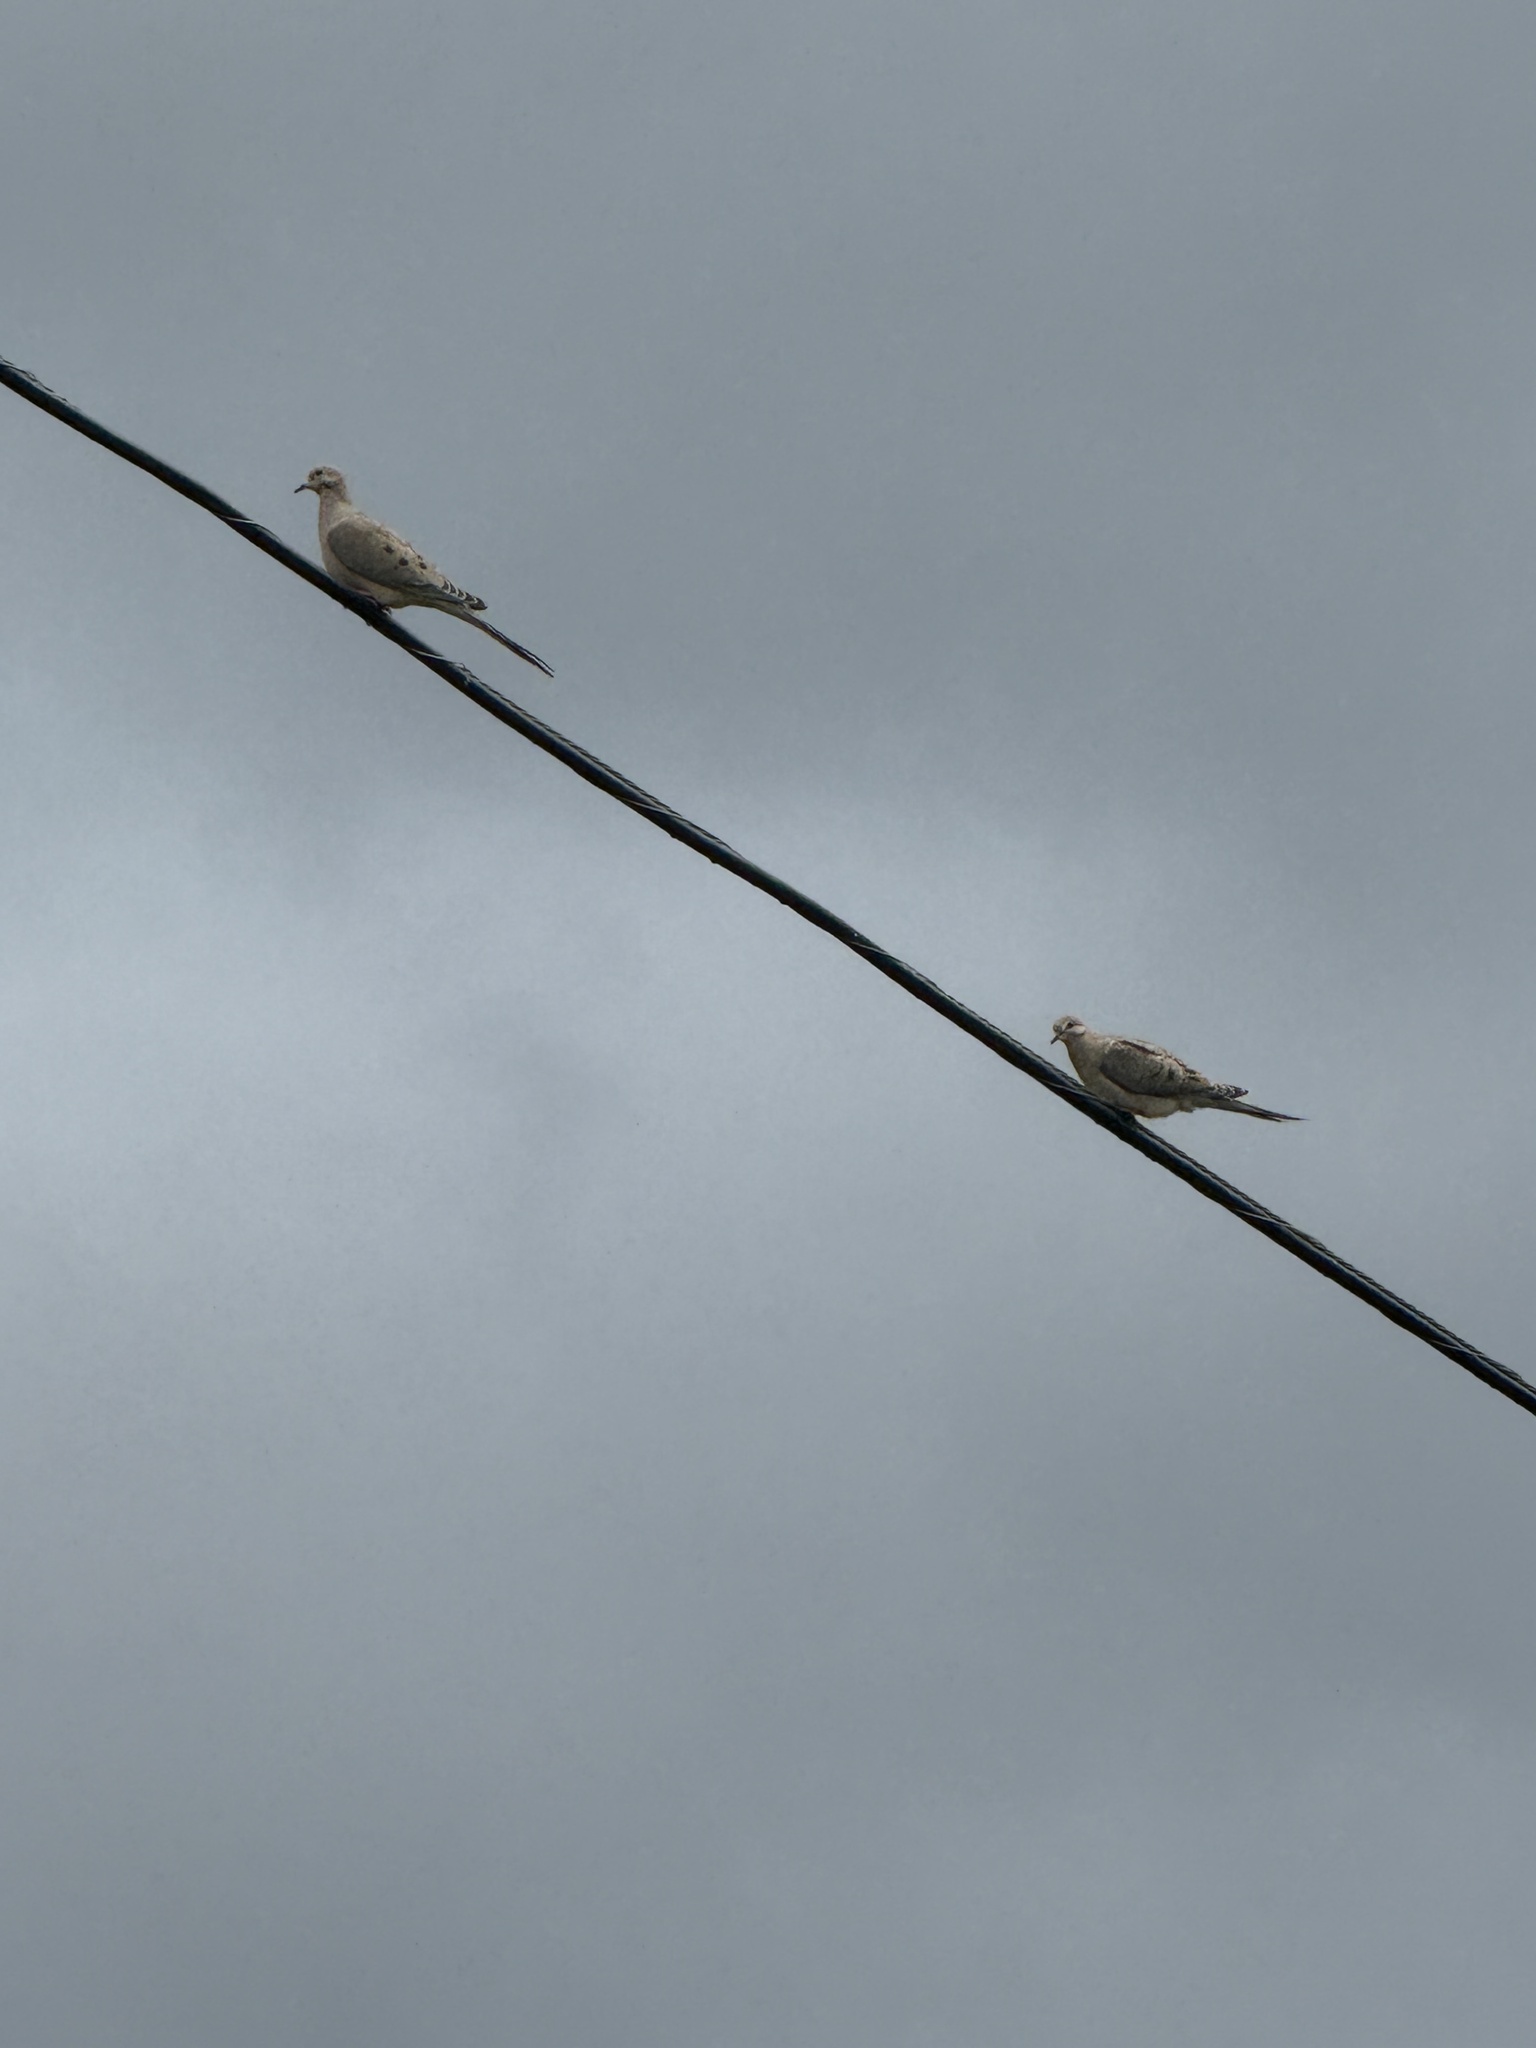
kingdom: Animalia
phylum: Chordata
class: Aves
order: Columbiformes
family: Columbidae
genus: Zenaida
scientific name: Zenaida macroura
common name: Mourning dove
